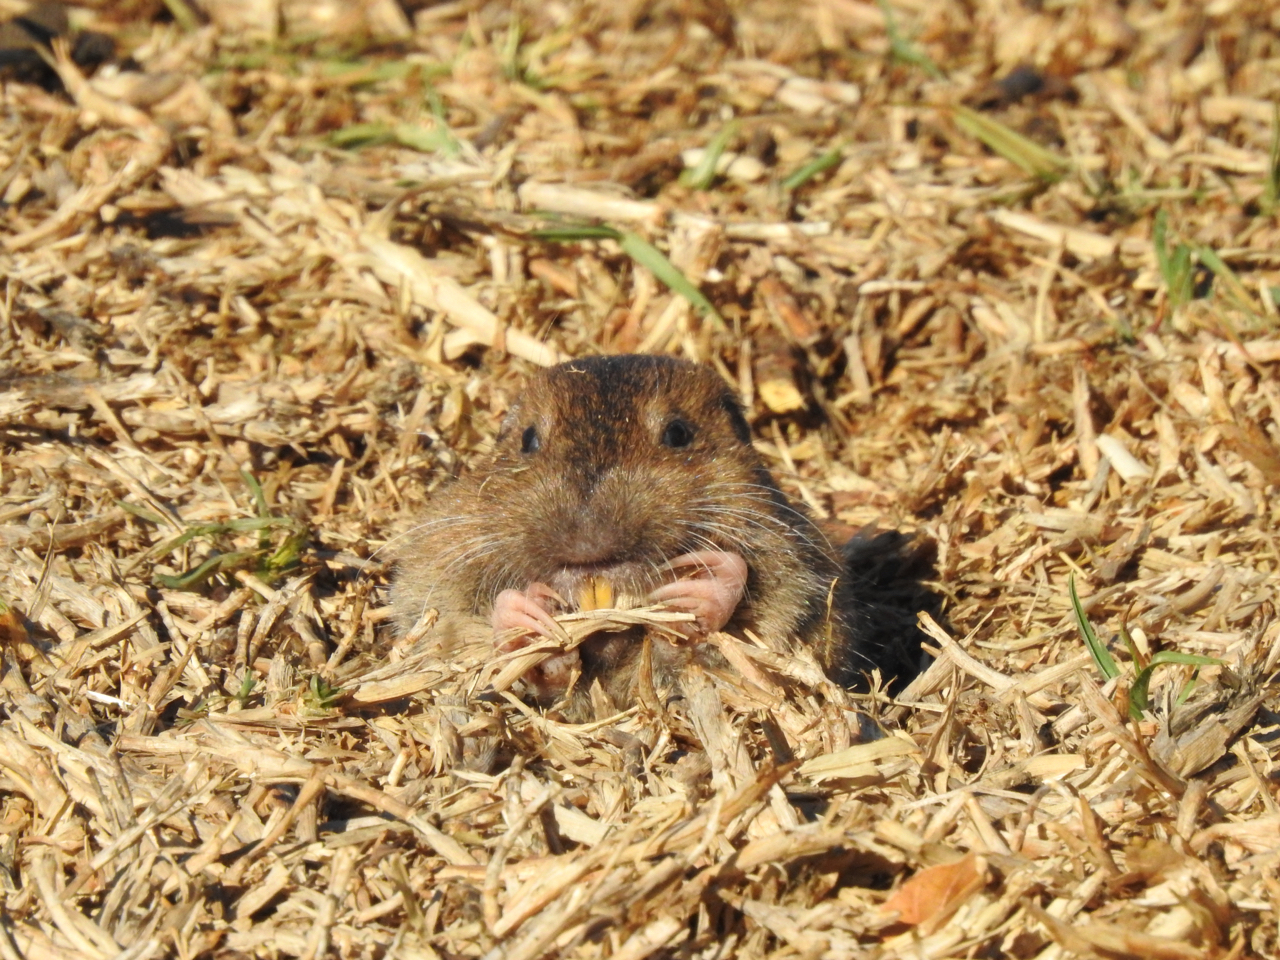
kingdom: Animalia
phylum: Chordata
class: Mammalia
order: Rodentia
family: Geomyidae
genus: Thomomys
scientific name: Thomomys bottae
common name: Botta's pocket gopher
